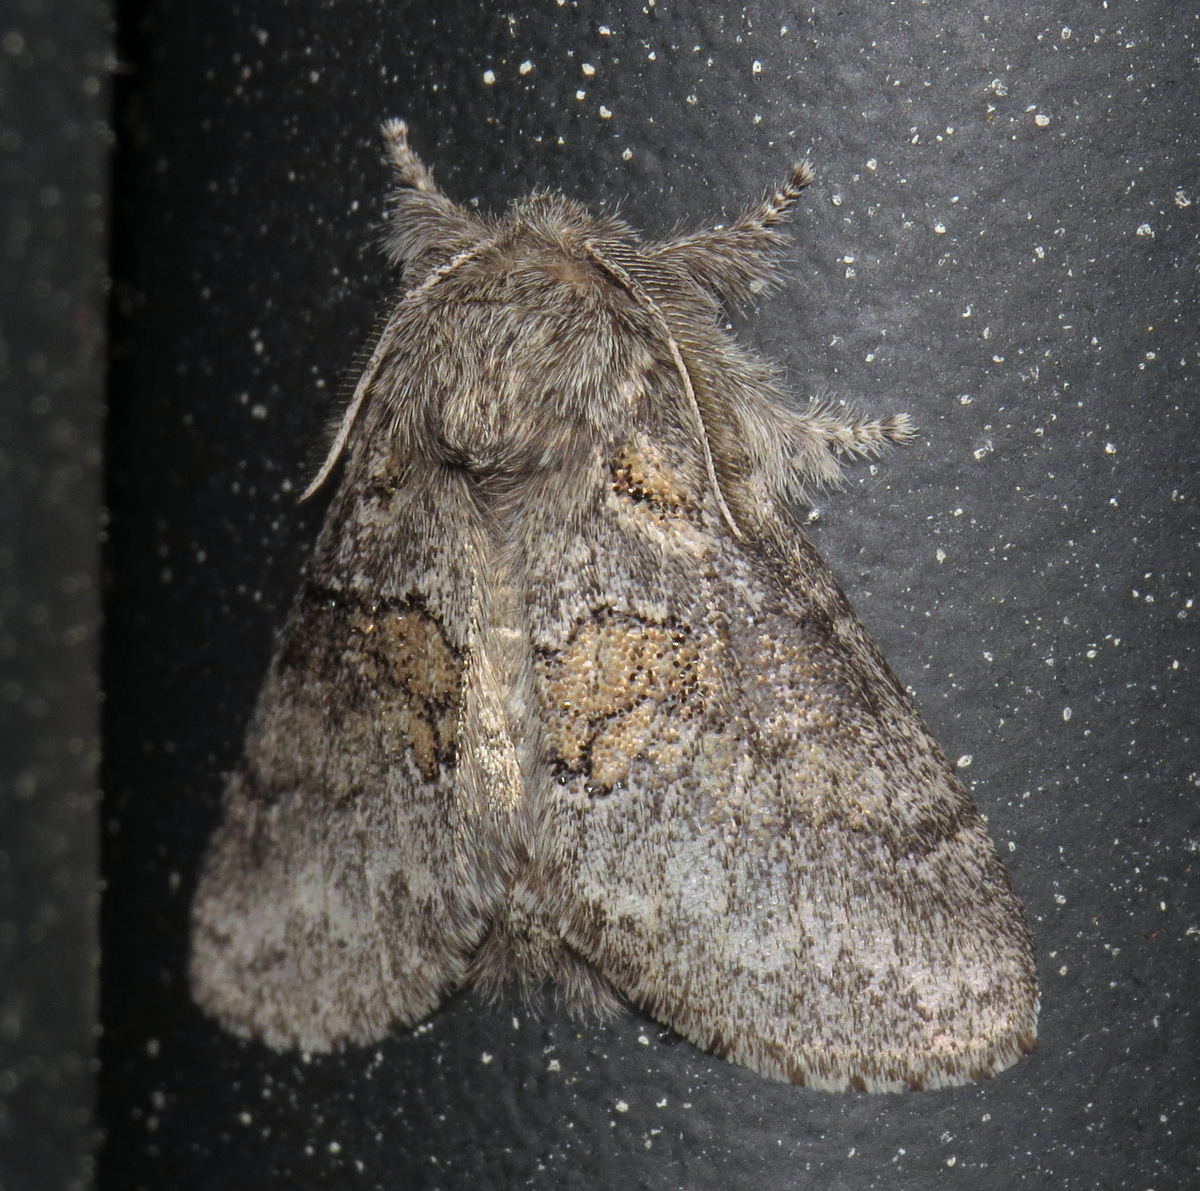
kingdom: Animalia
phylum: Arthropoda
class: Insecta
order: Lepidoptera
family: Notodontidae
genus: Gluphisia
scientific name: Gluphisia septentrionis
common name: Common gluphisia
